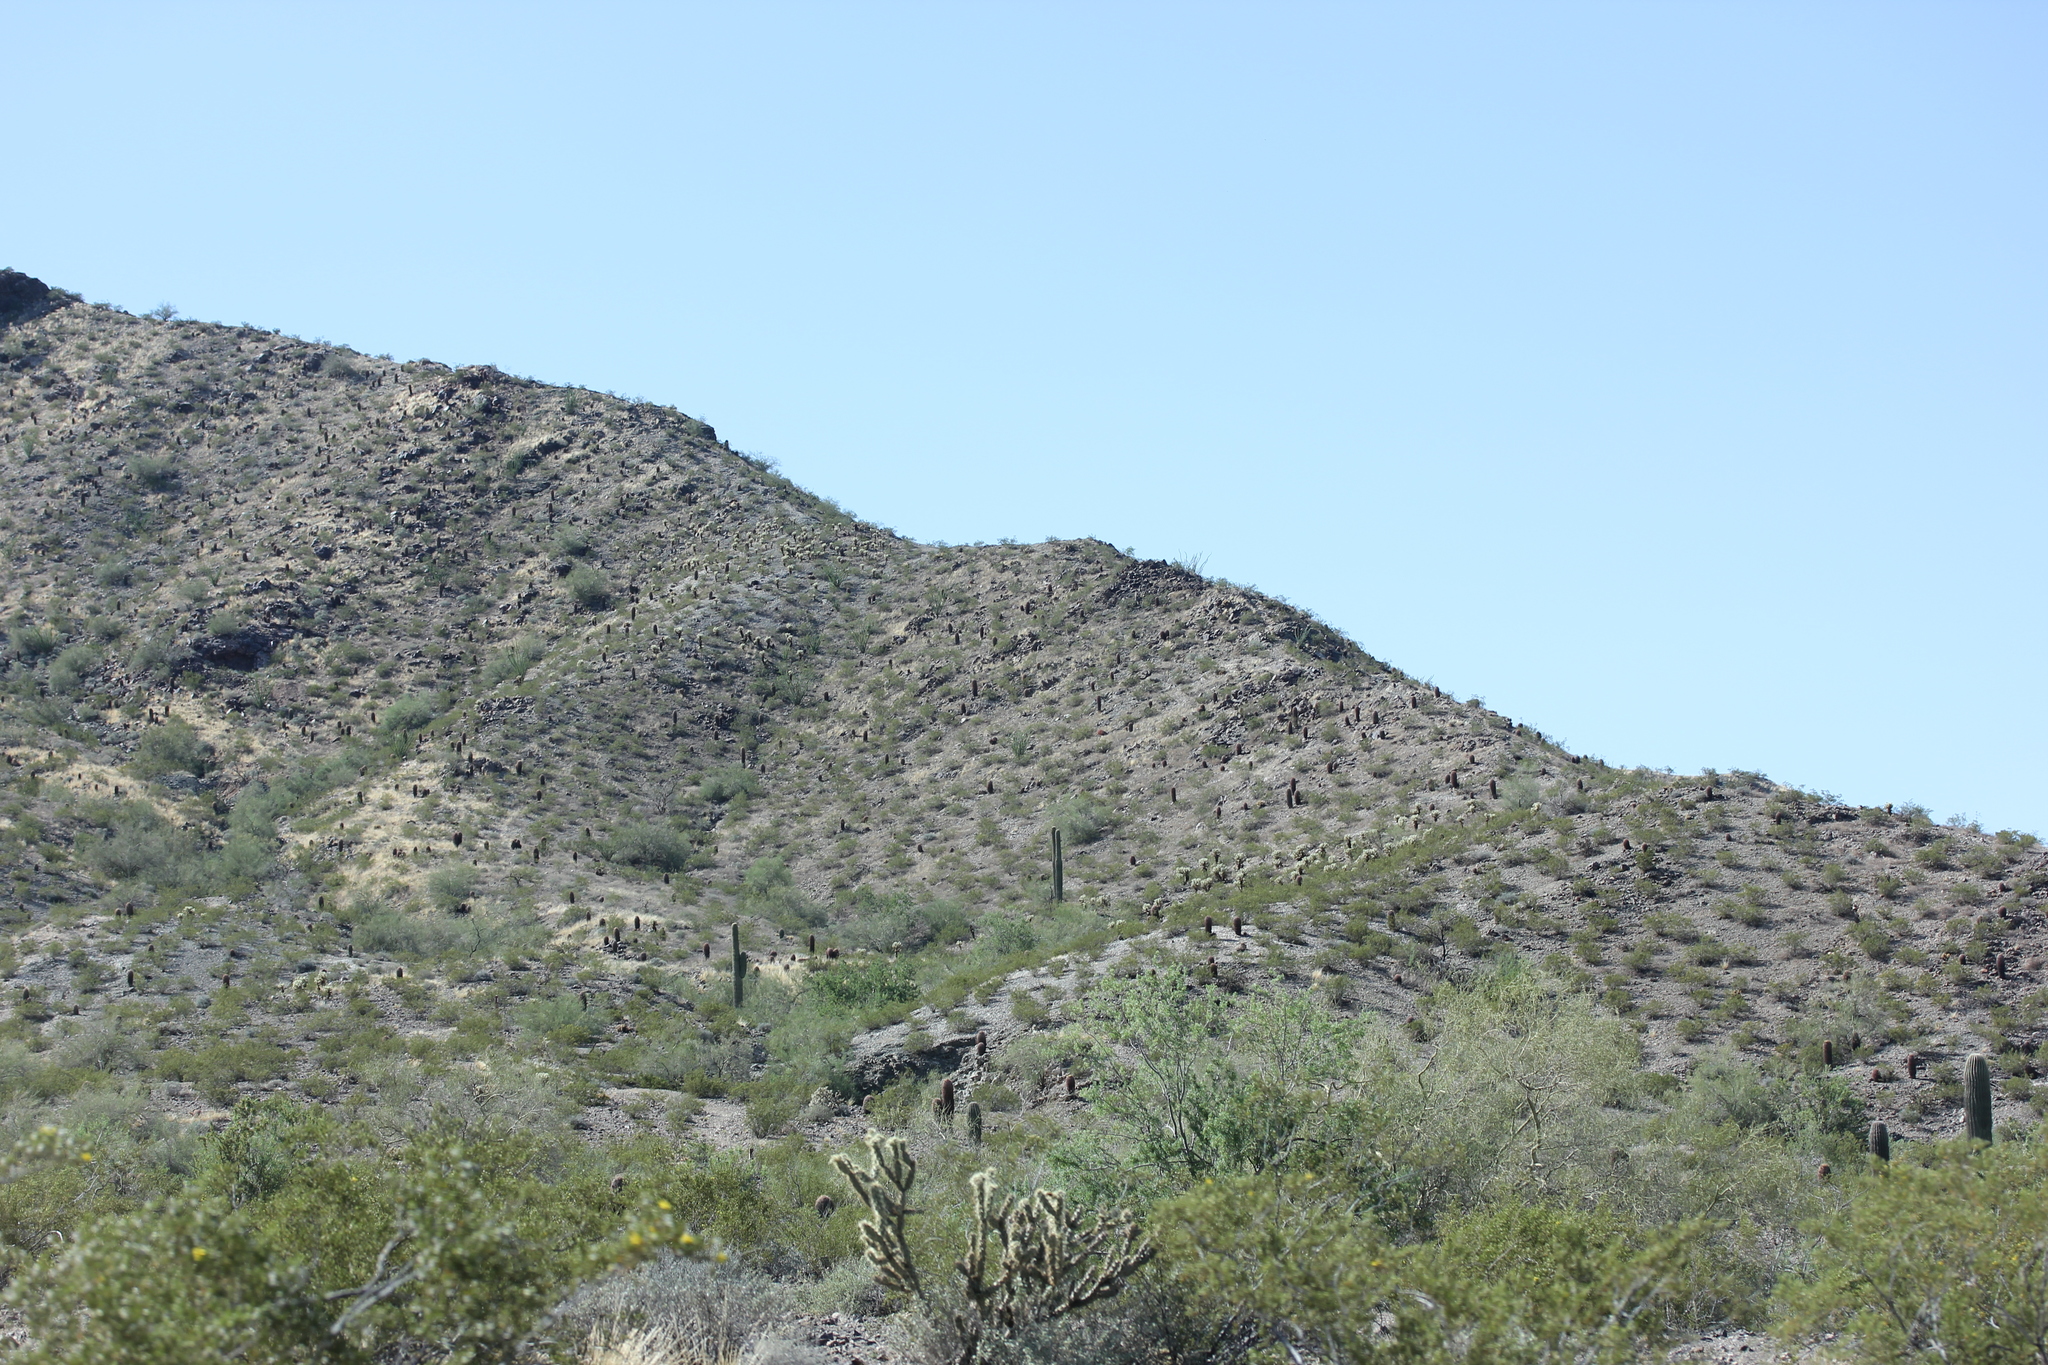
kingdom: Plantae
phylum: Tracheophyta
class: Magnoliopsida
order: Caryophyllales
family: Cactaceae
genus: Carnegiea
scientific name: Carnegiea gigantea
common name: Saguaro
